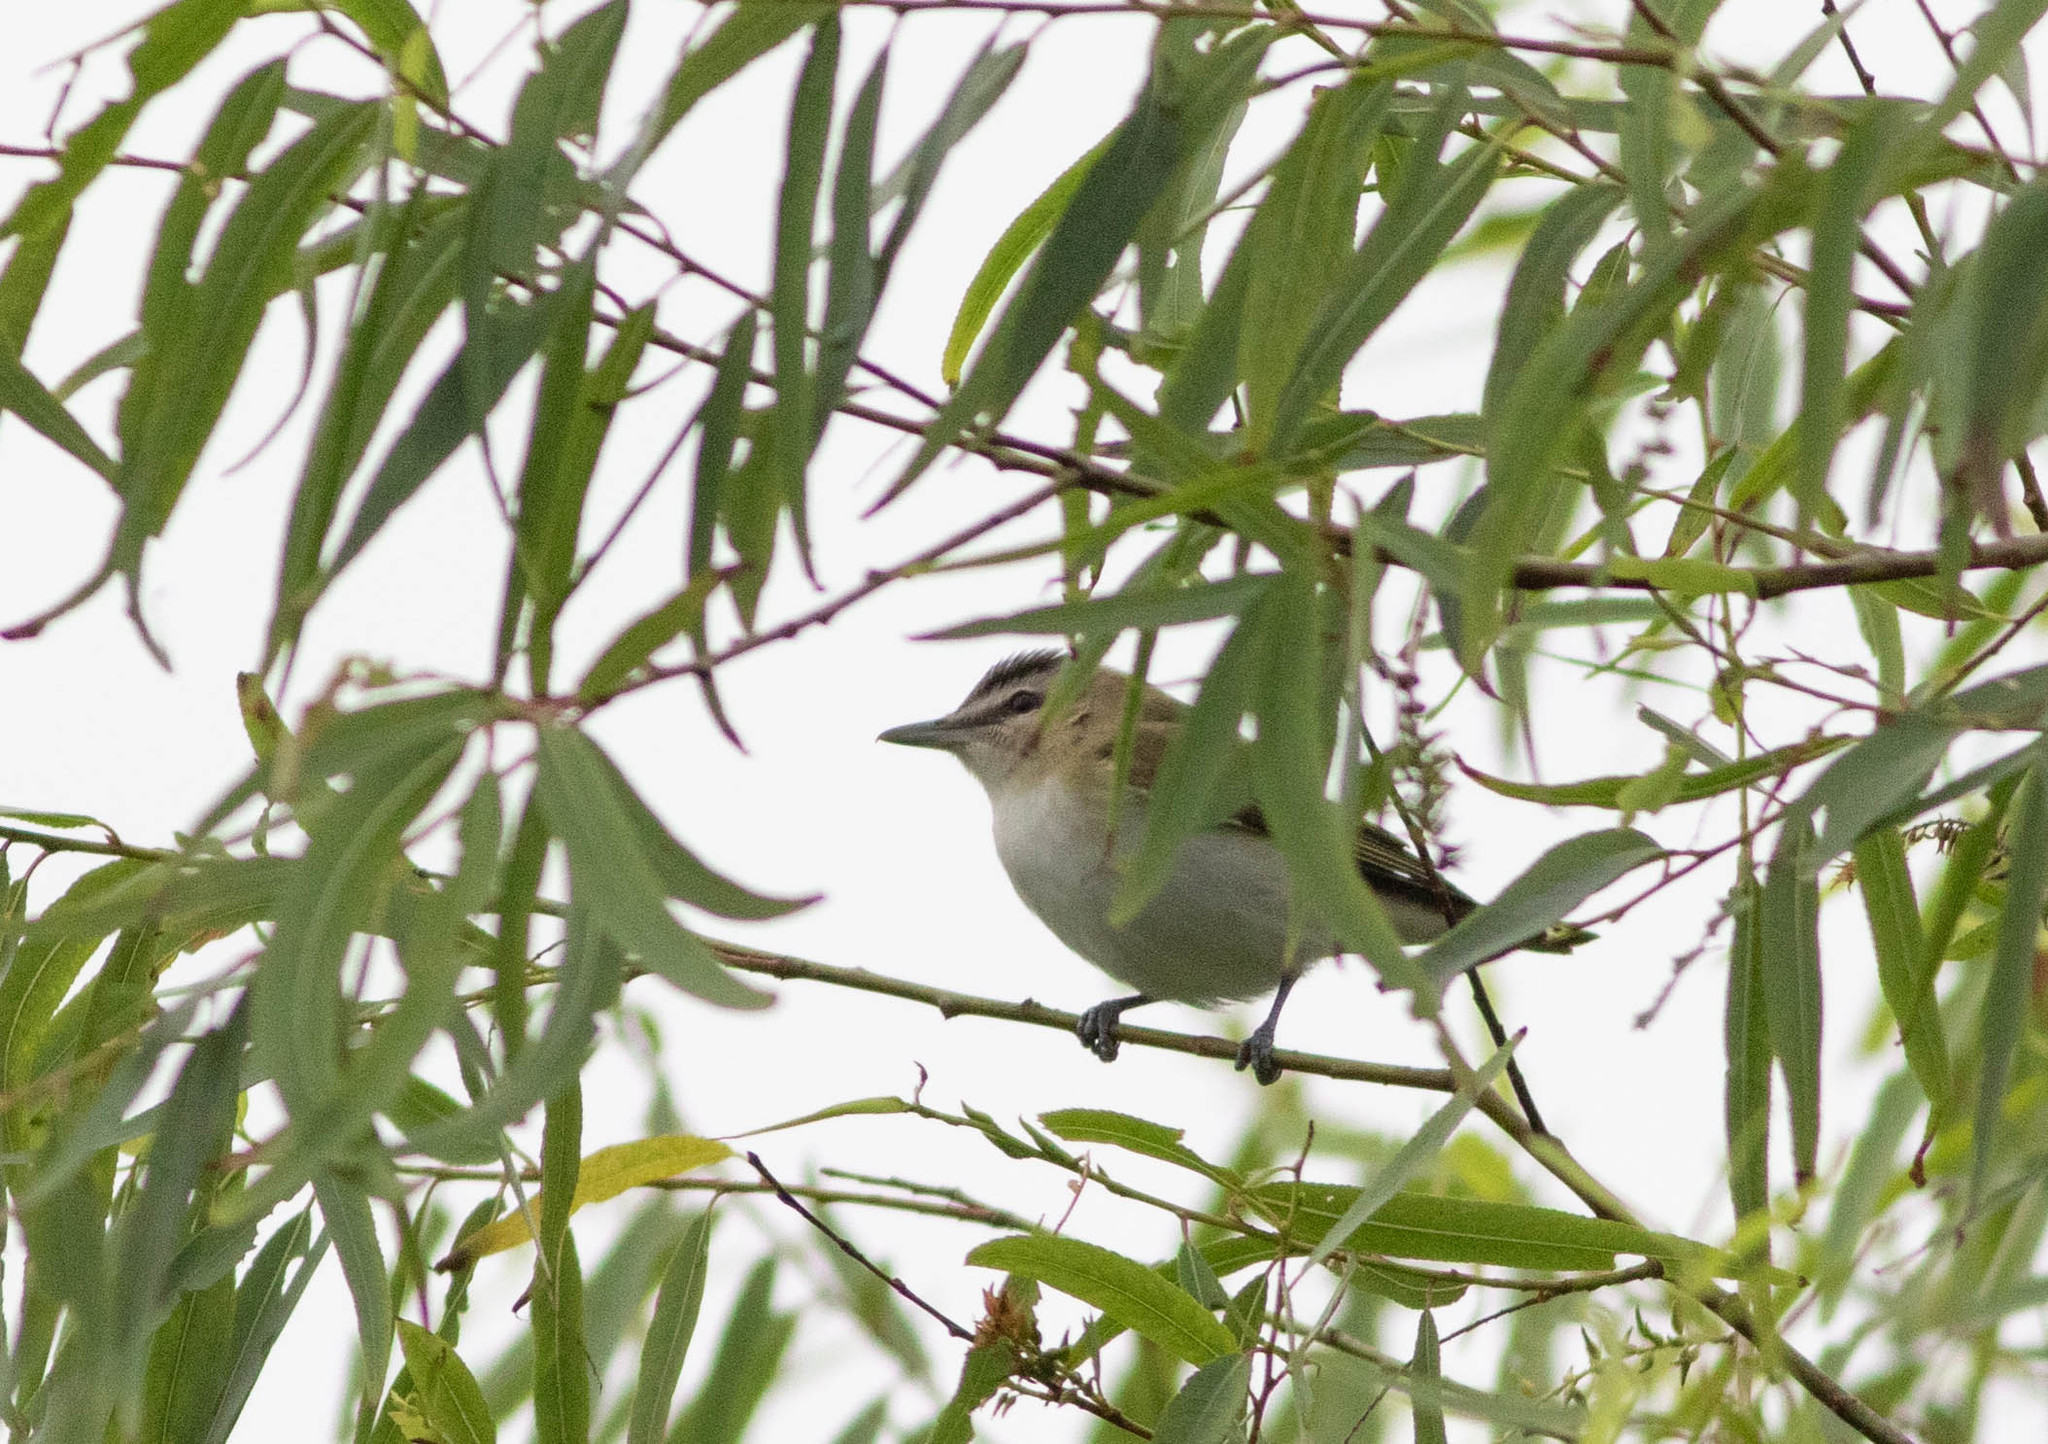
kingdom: Animalia
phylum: Chordata
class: Aves
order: Passeriformes
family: Vireonidae
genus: Vireo
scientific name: Vireo olivaceus
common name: Red-eyed vireo
